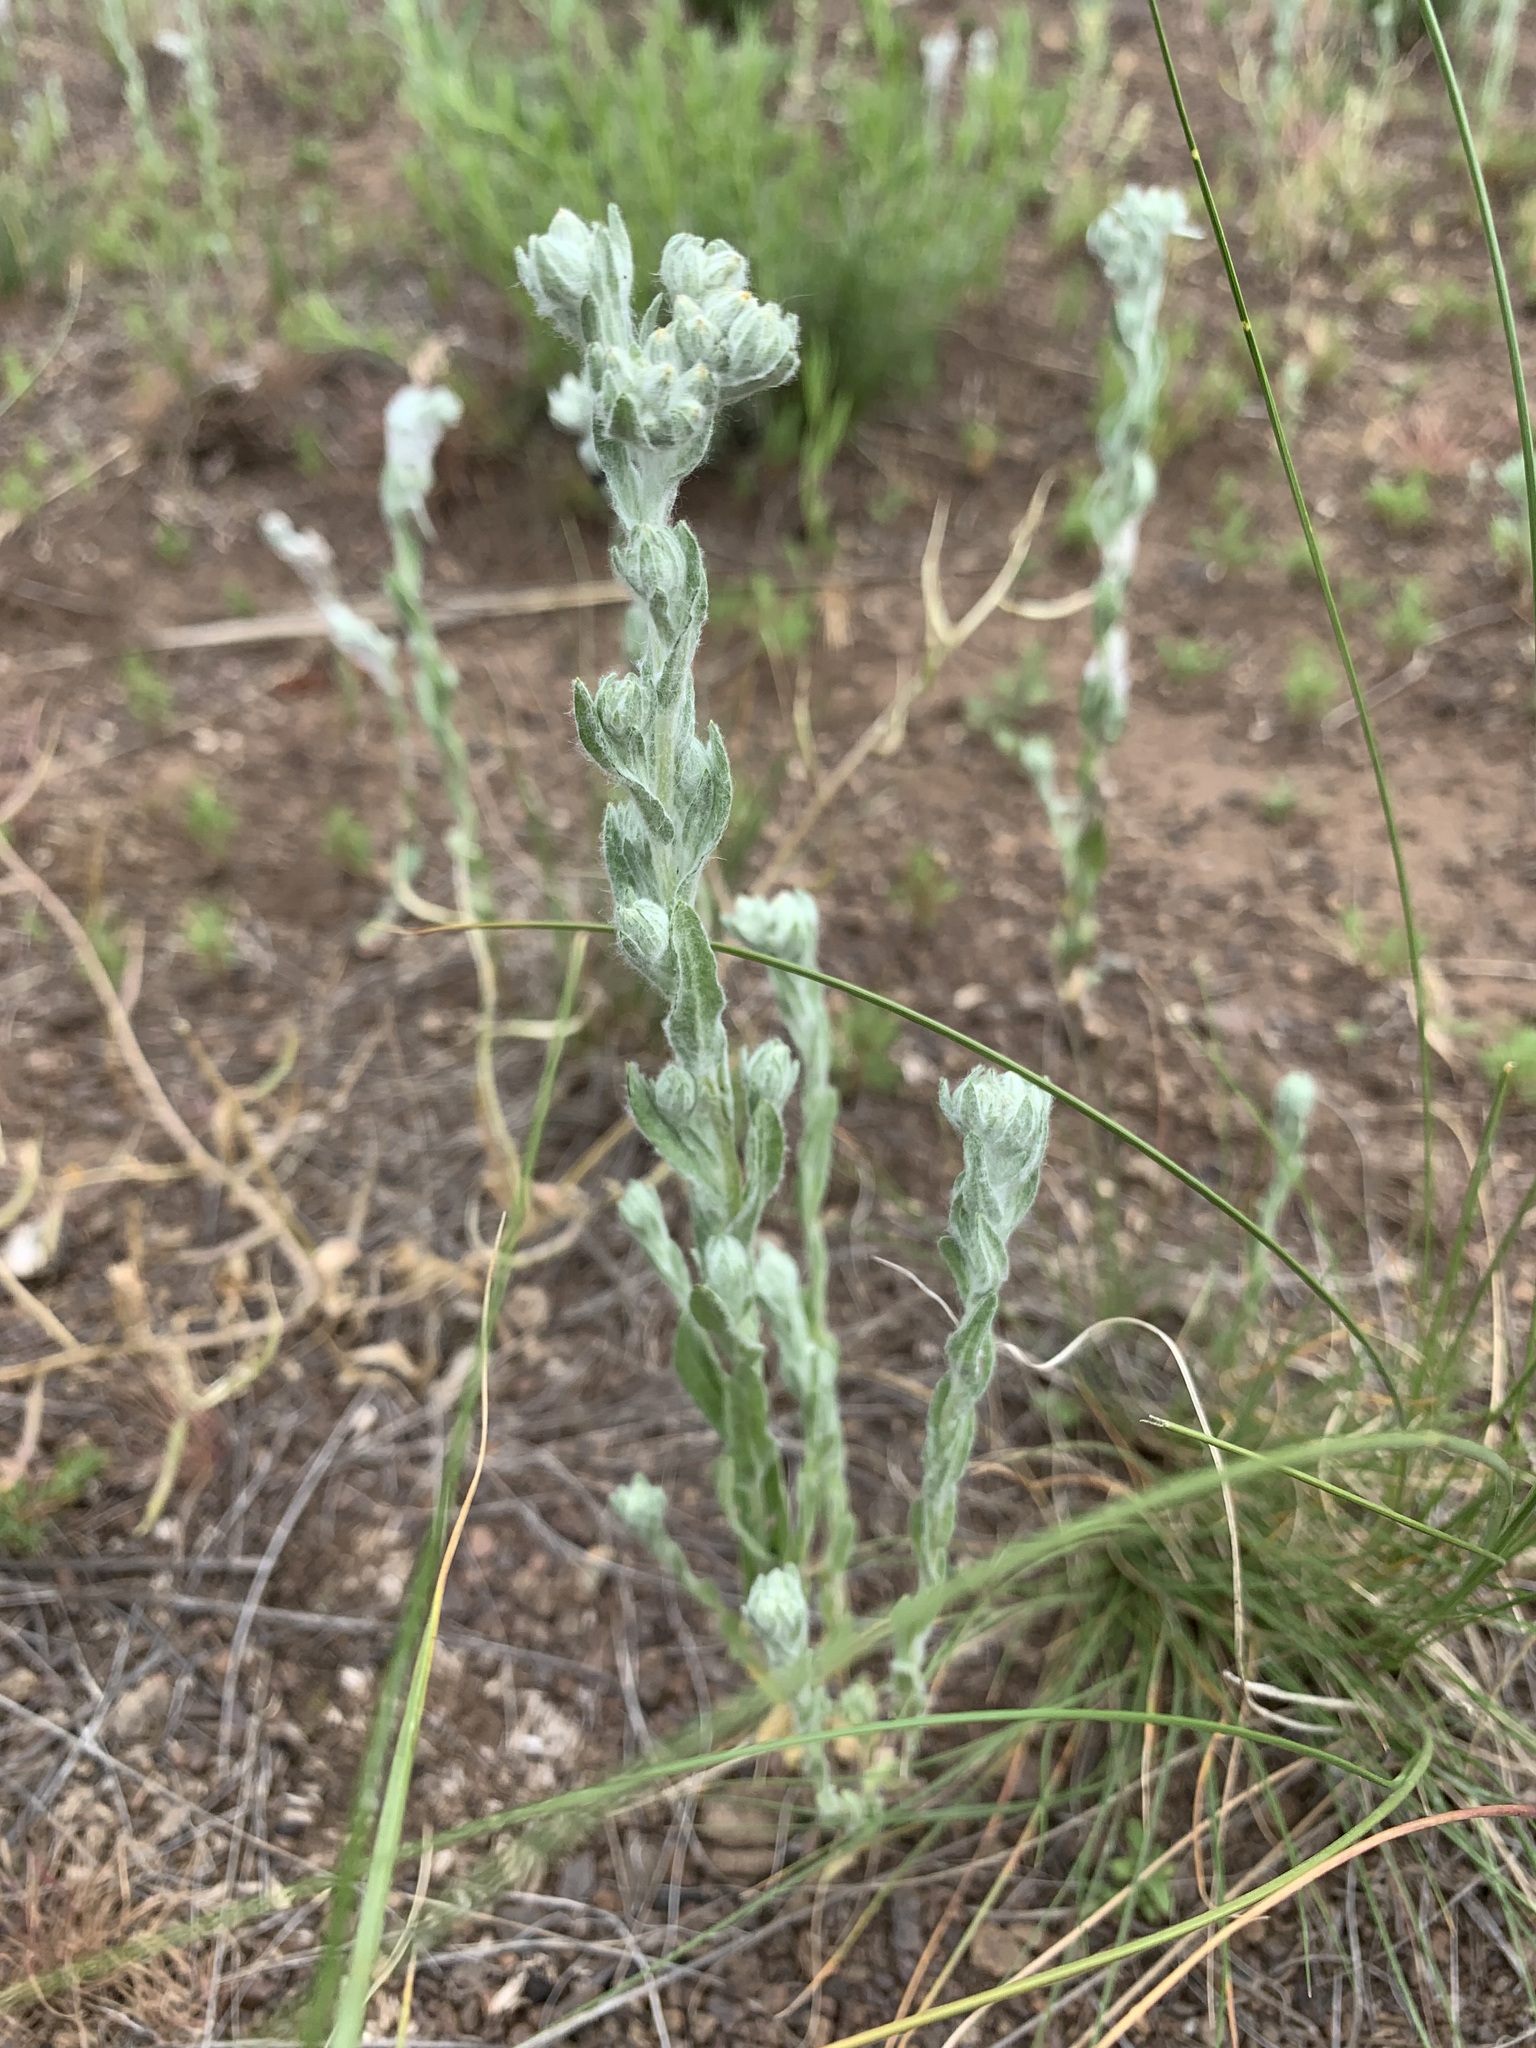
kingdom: Plantae
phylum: Tracheophyta
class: Magnoliopsida
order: Asterales
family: Asteraceae
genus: Filago
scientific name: Filago arvensis
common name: Field cudweed
